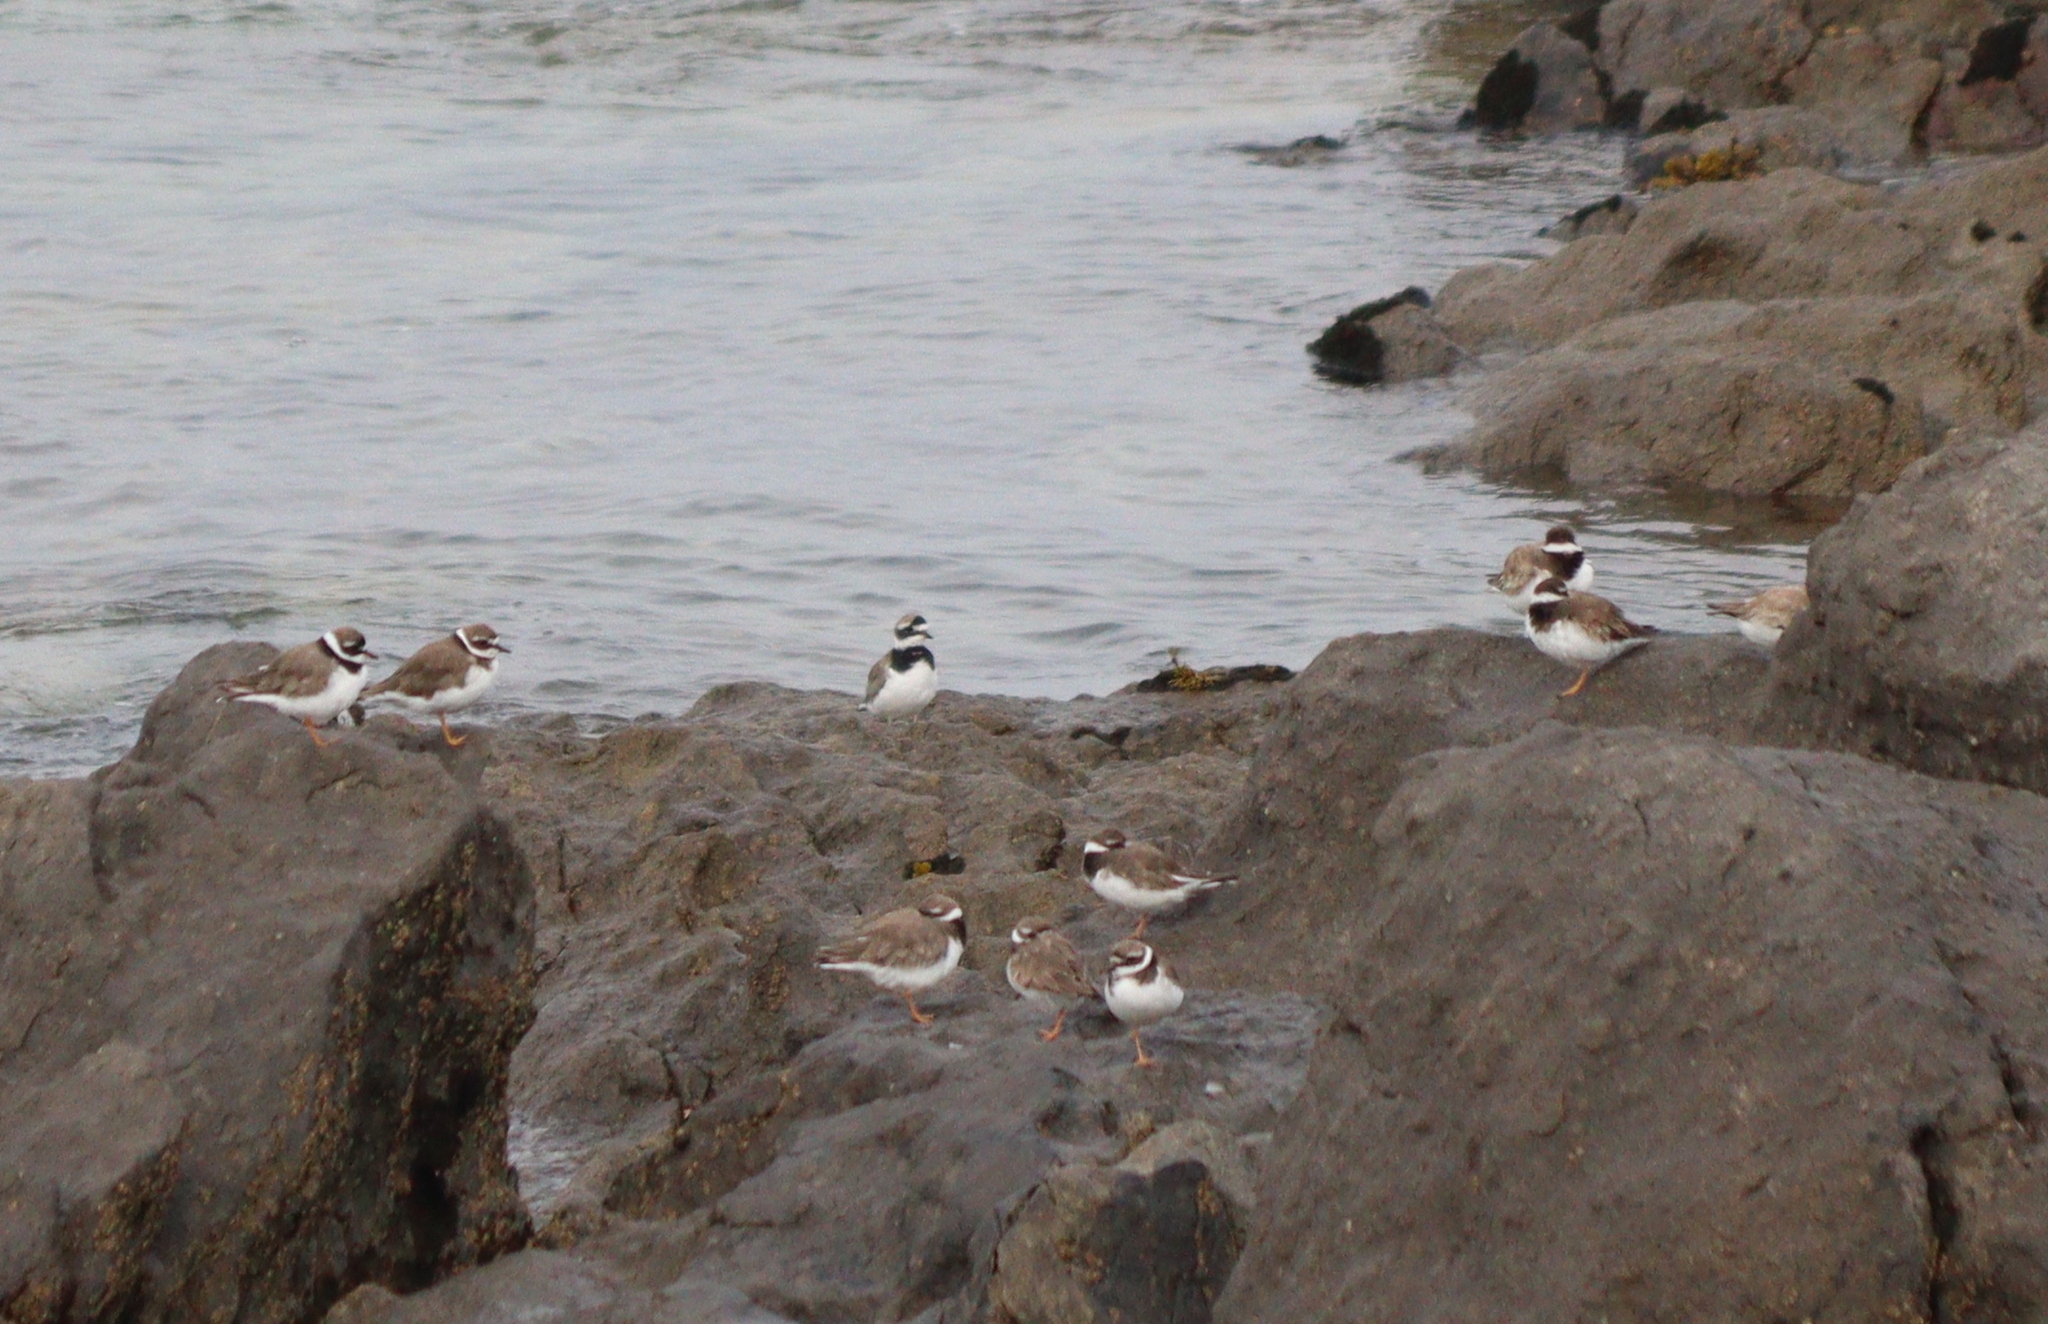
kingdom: Animalia
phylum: Chordata
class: Aves
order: Charadriiformes
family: Charadriidae
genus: Charadrius
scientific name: Charadrius hiaticula
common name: Common ringed plover
